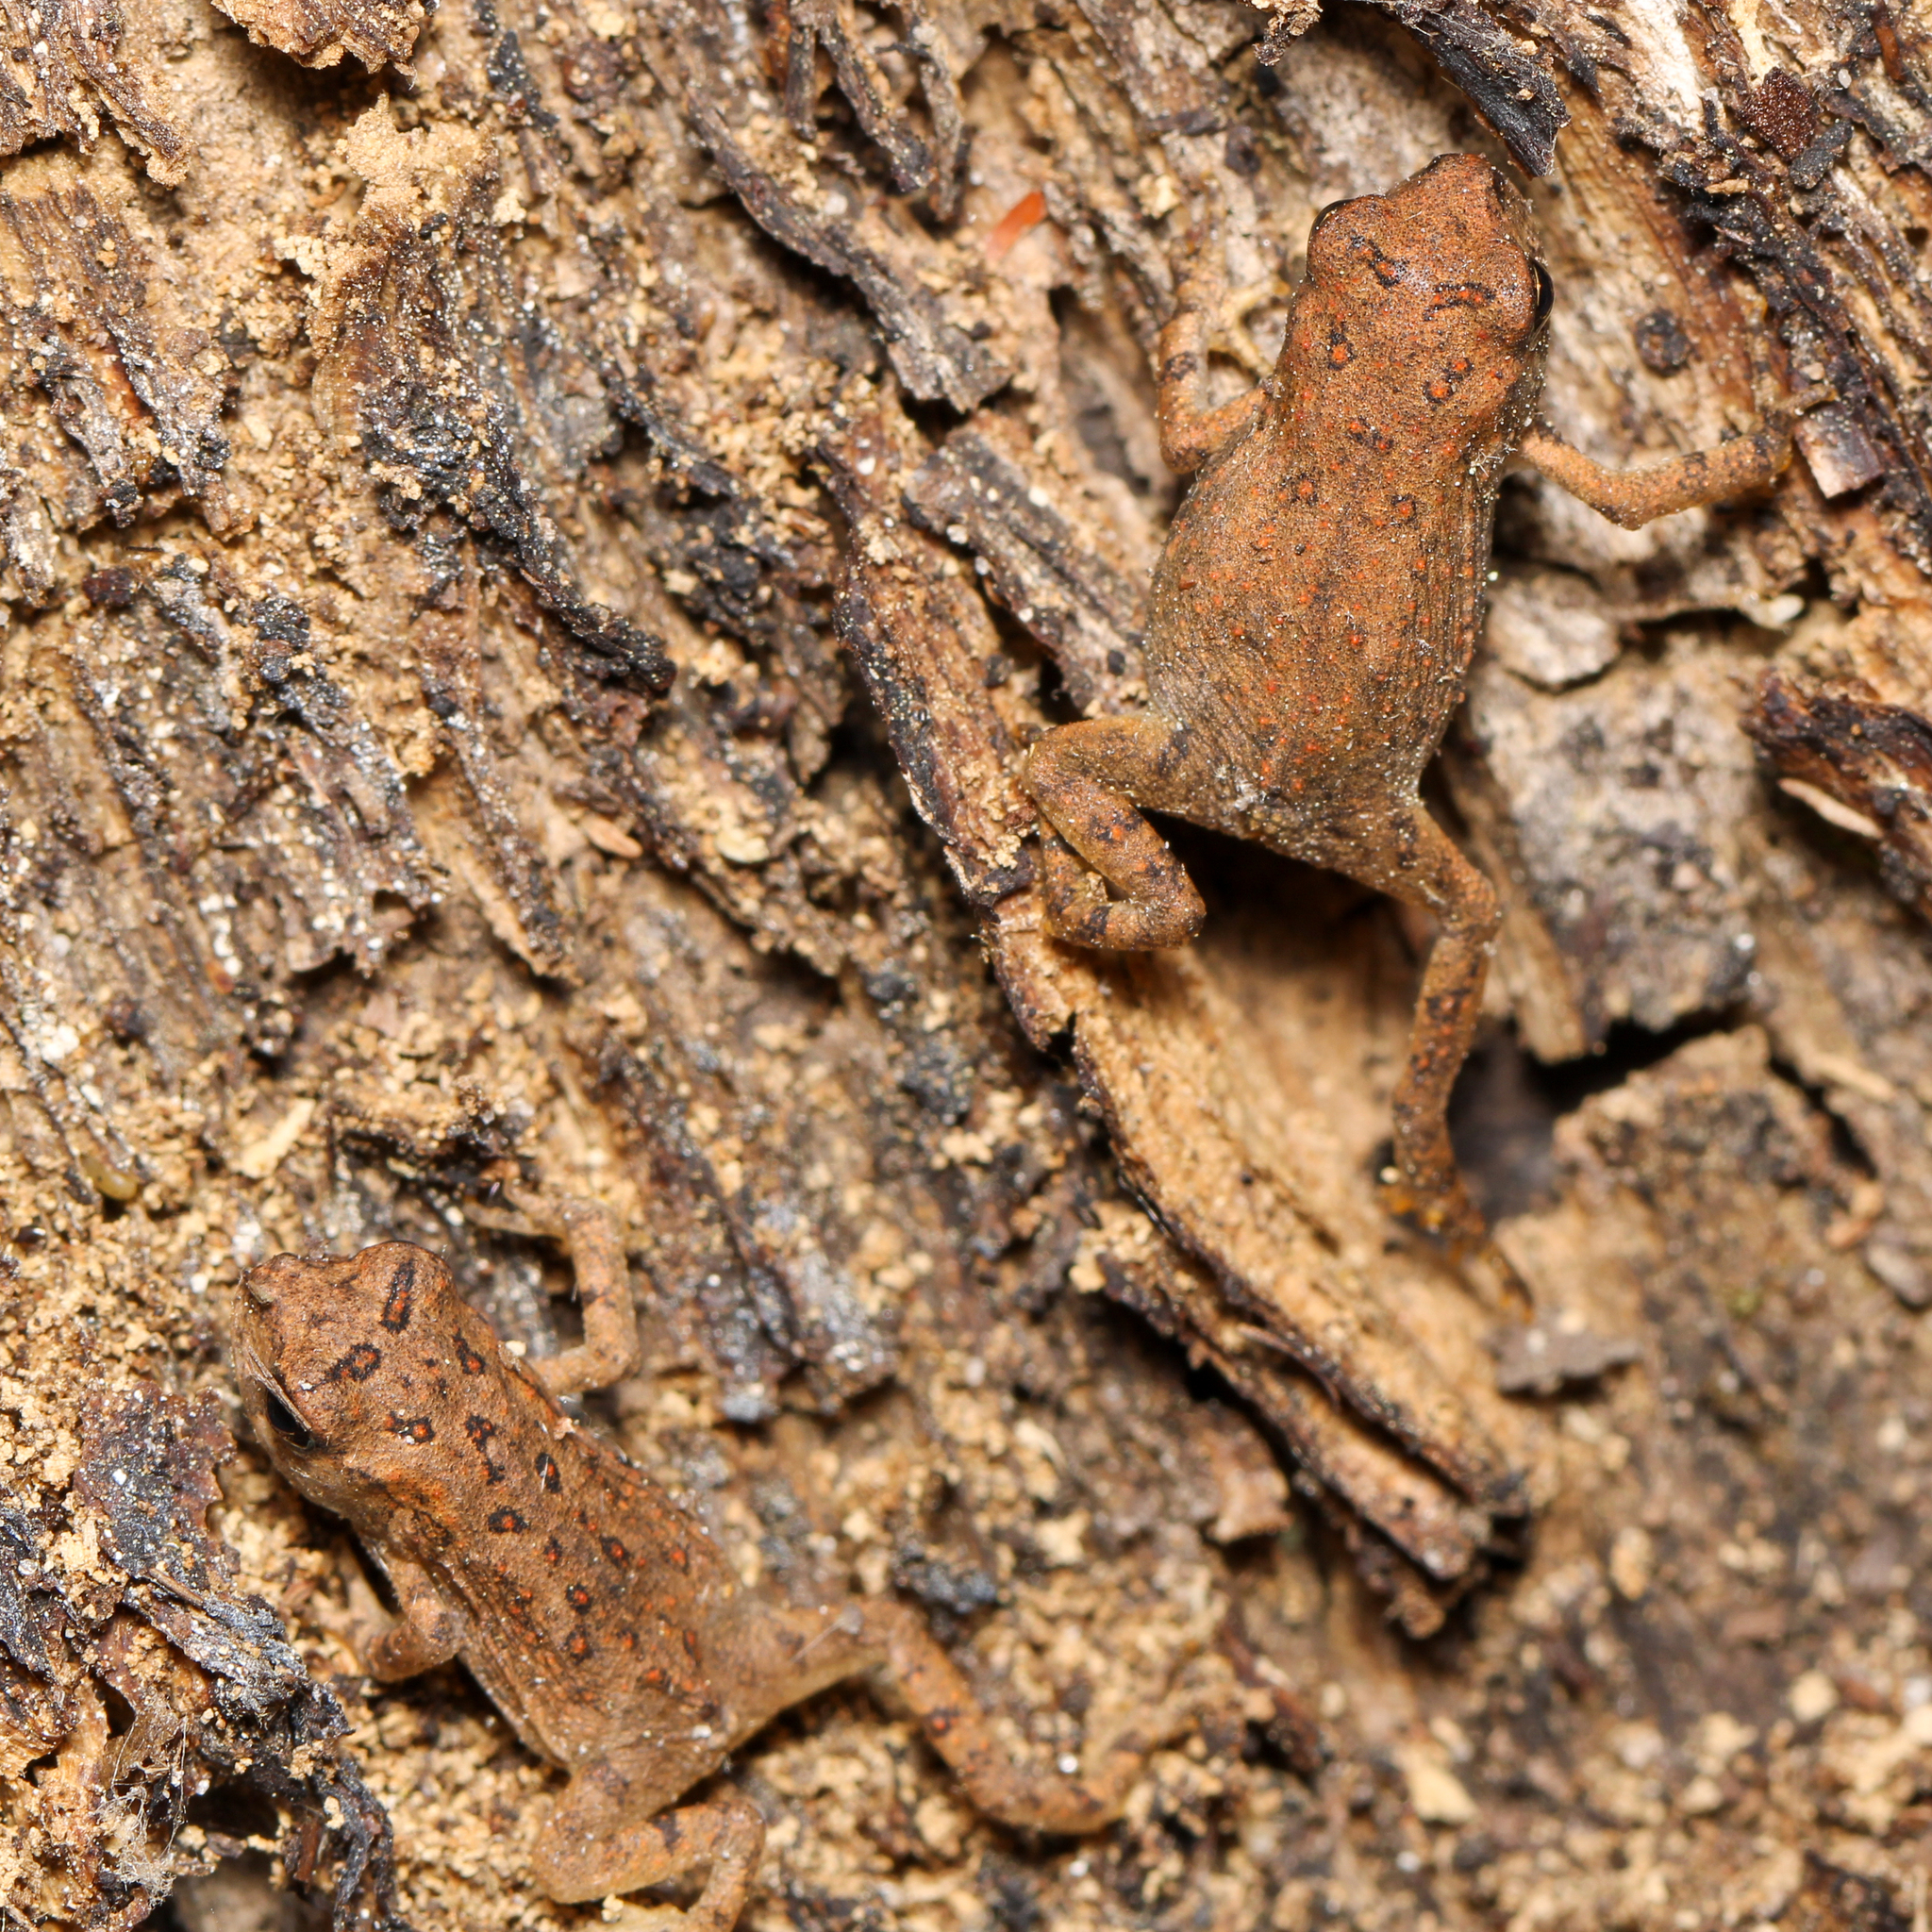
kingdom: Animalia
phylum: Chordata
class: Amphibia
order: Anura
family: Bufonidae
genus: Anaxyrus
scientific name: Anaxyrus americanus
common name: American toad
